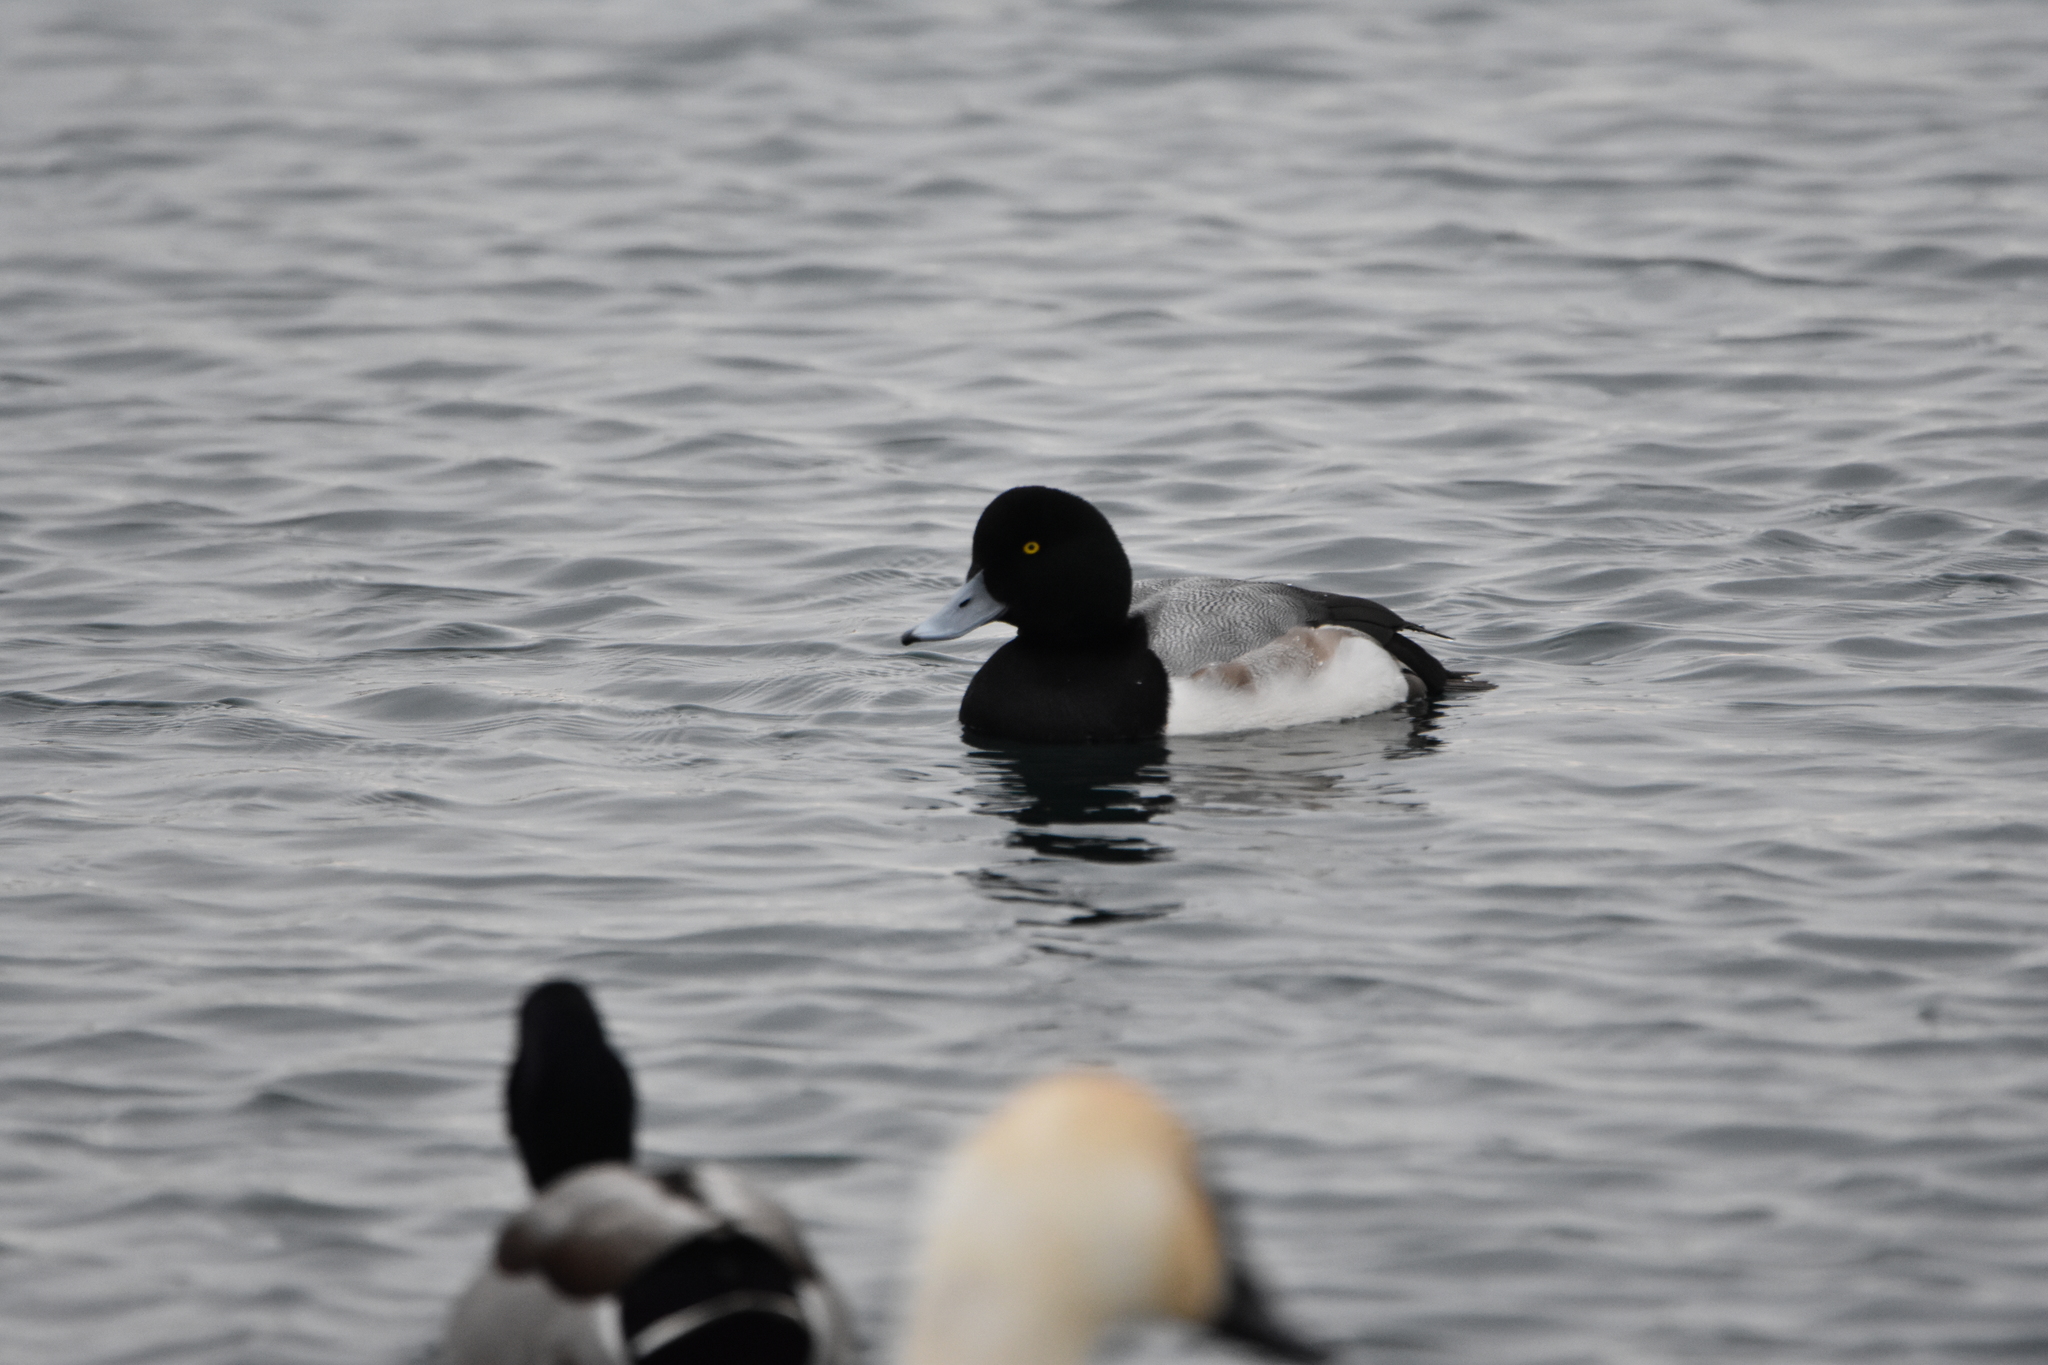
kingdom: Animalia
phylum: Chordata
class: Aves
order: Anseriformes
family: Anatidae
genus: Aythya
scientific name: Aythya marila
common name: Greater scaup
